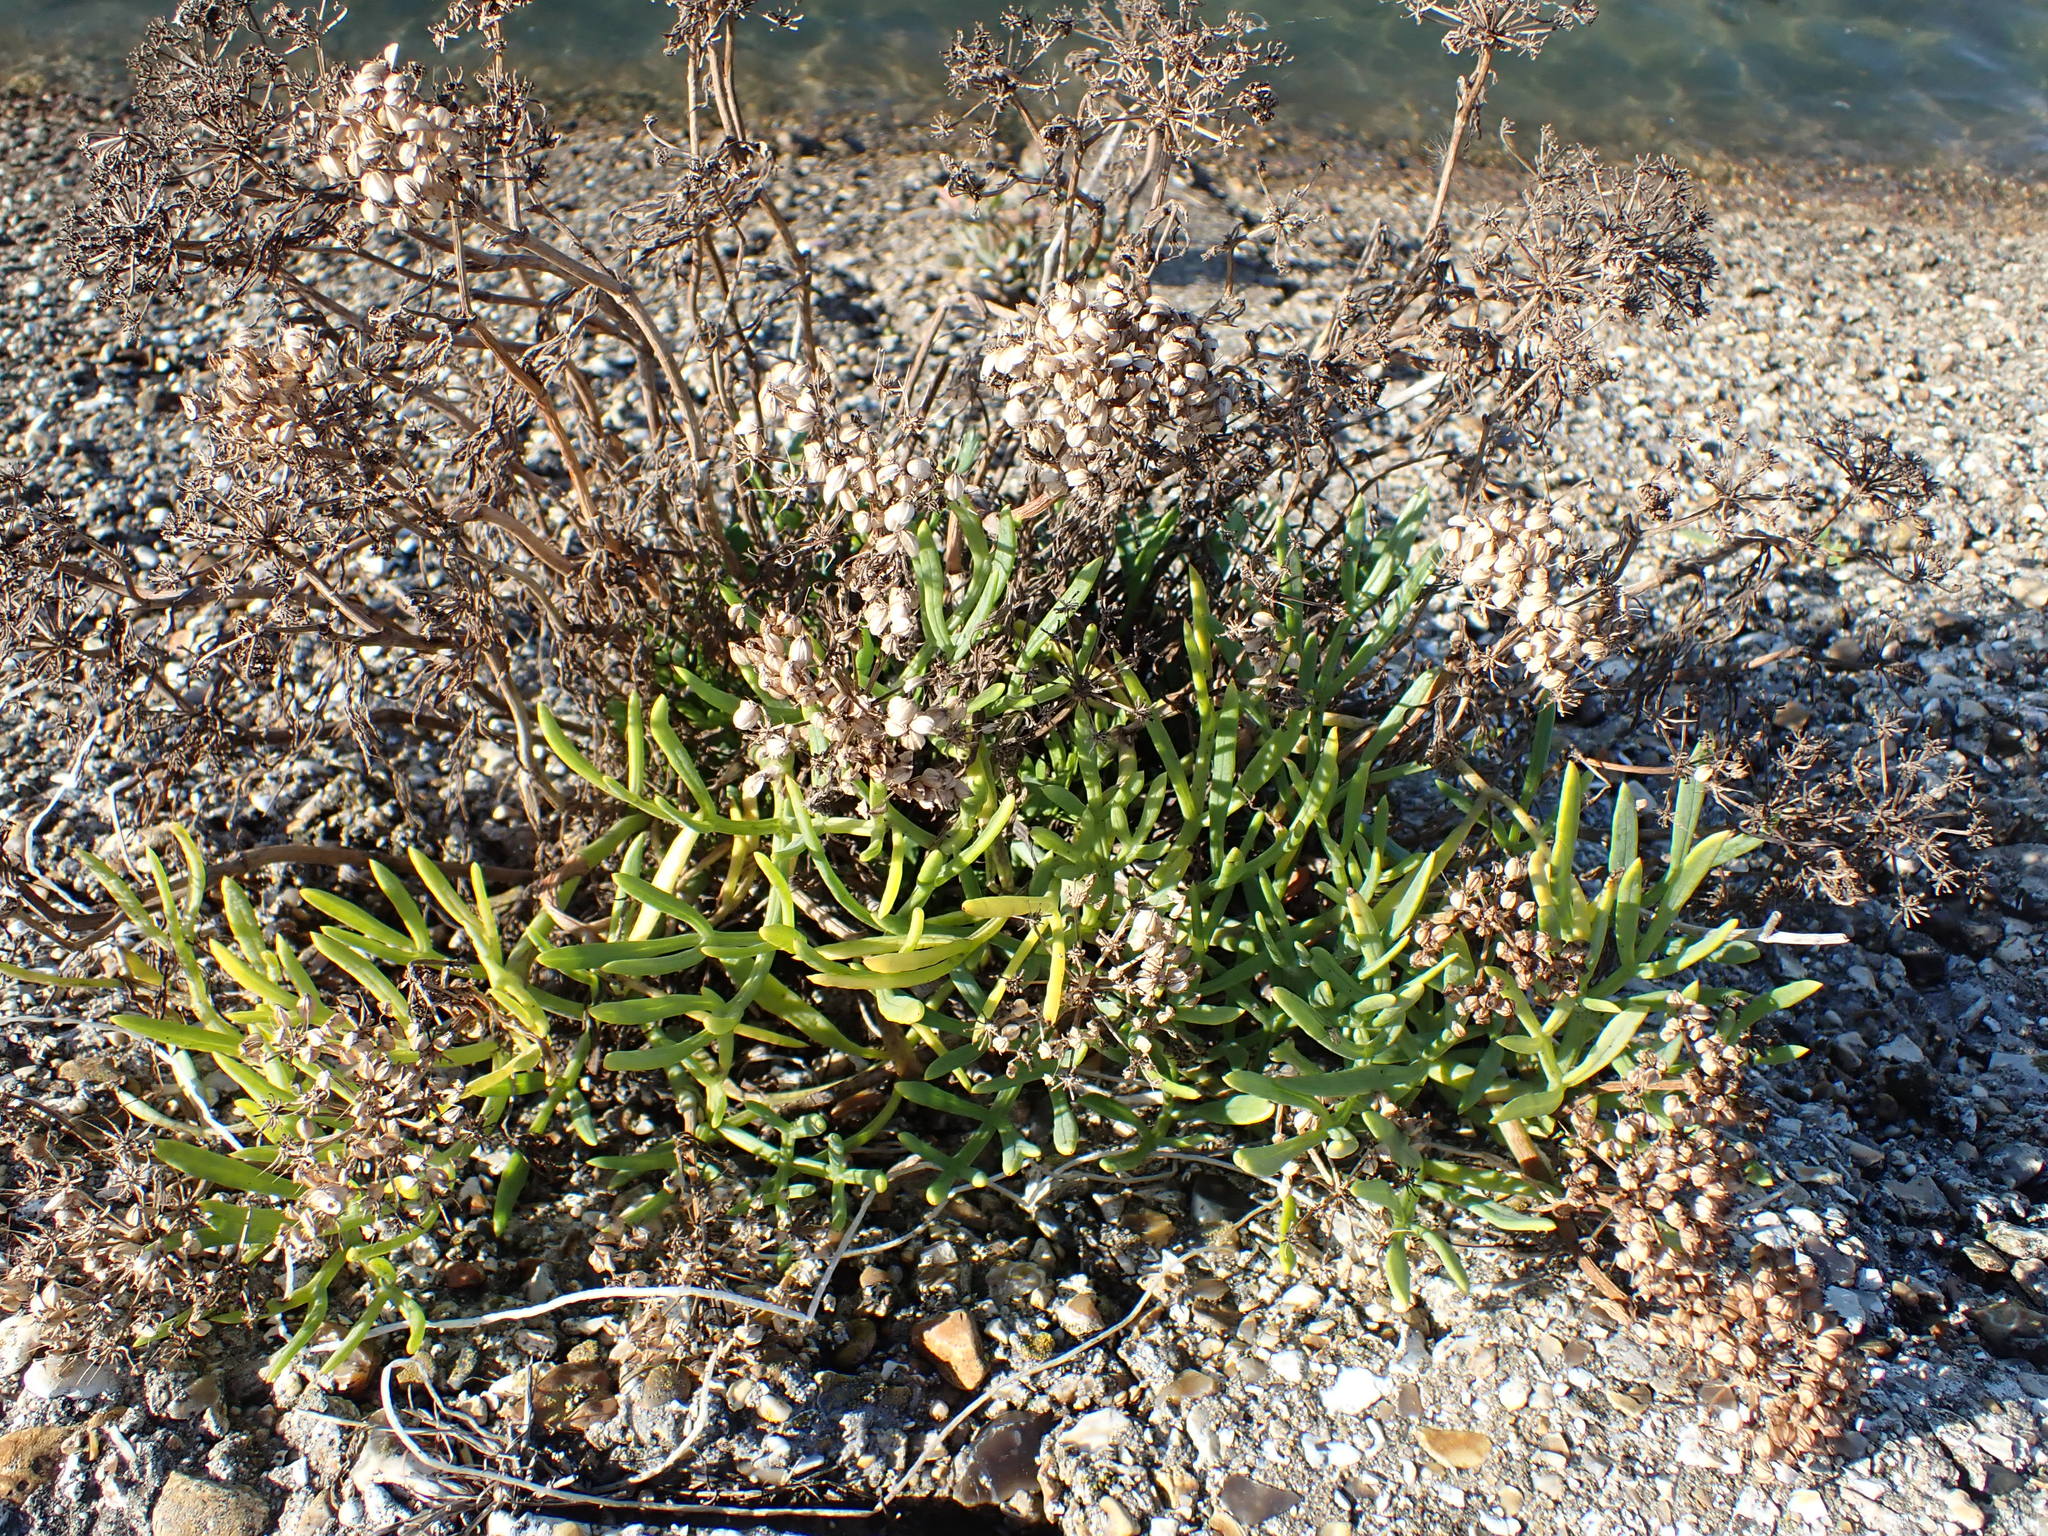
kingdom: Plantae
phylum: Tracheophyta
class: Magnoliopsida
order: Apiales
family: Apiaceae
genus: Crithmum
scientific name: Crithmum maritimum
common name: Rock samphire
